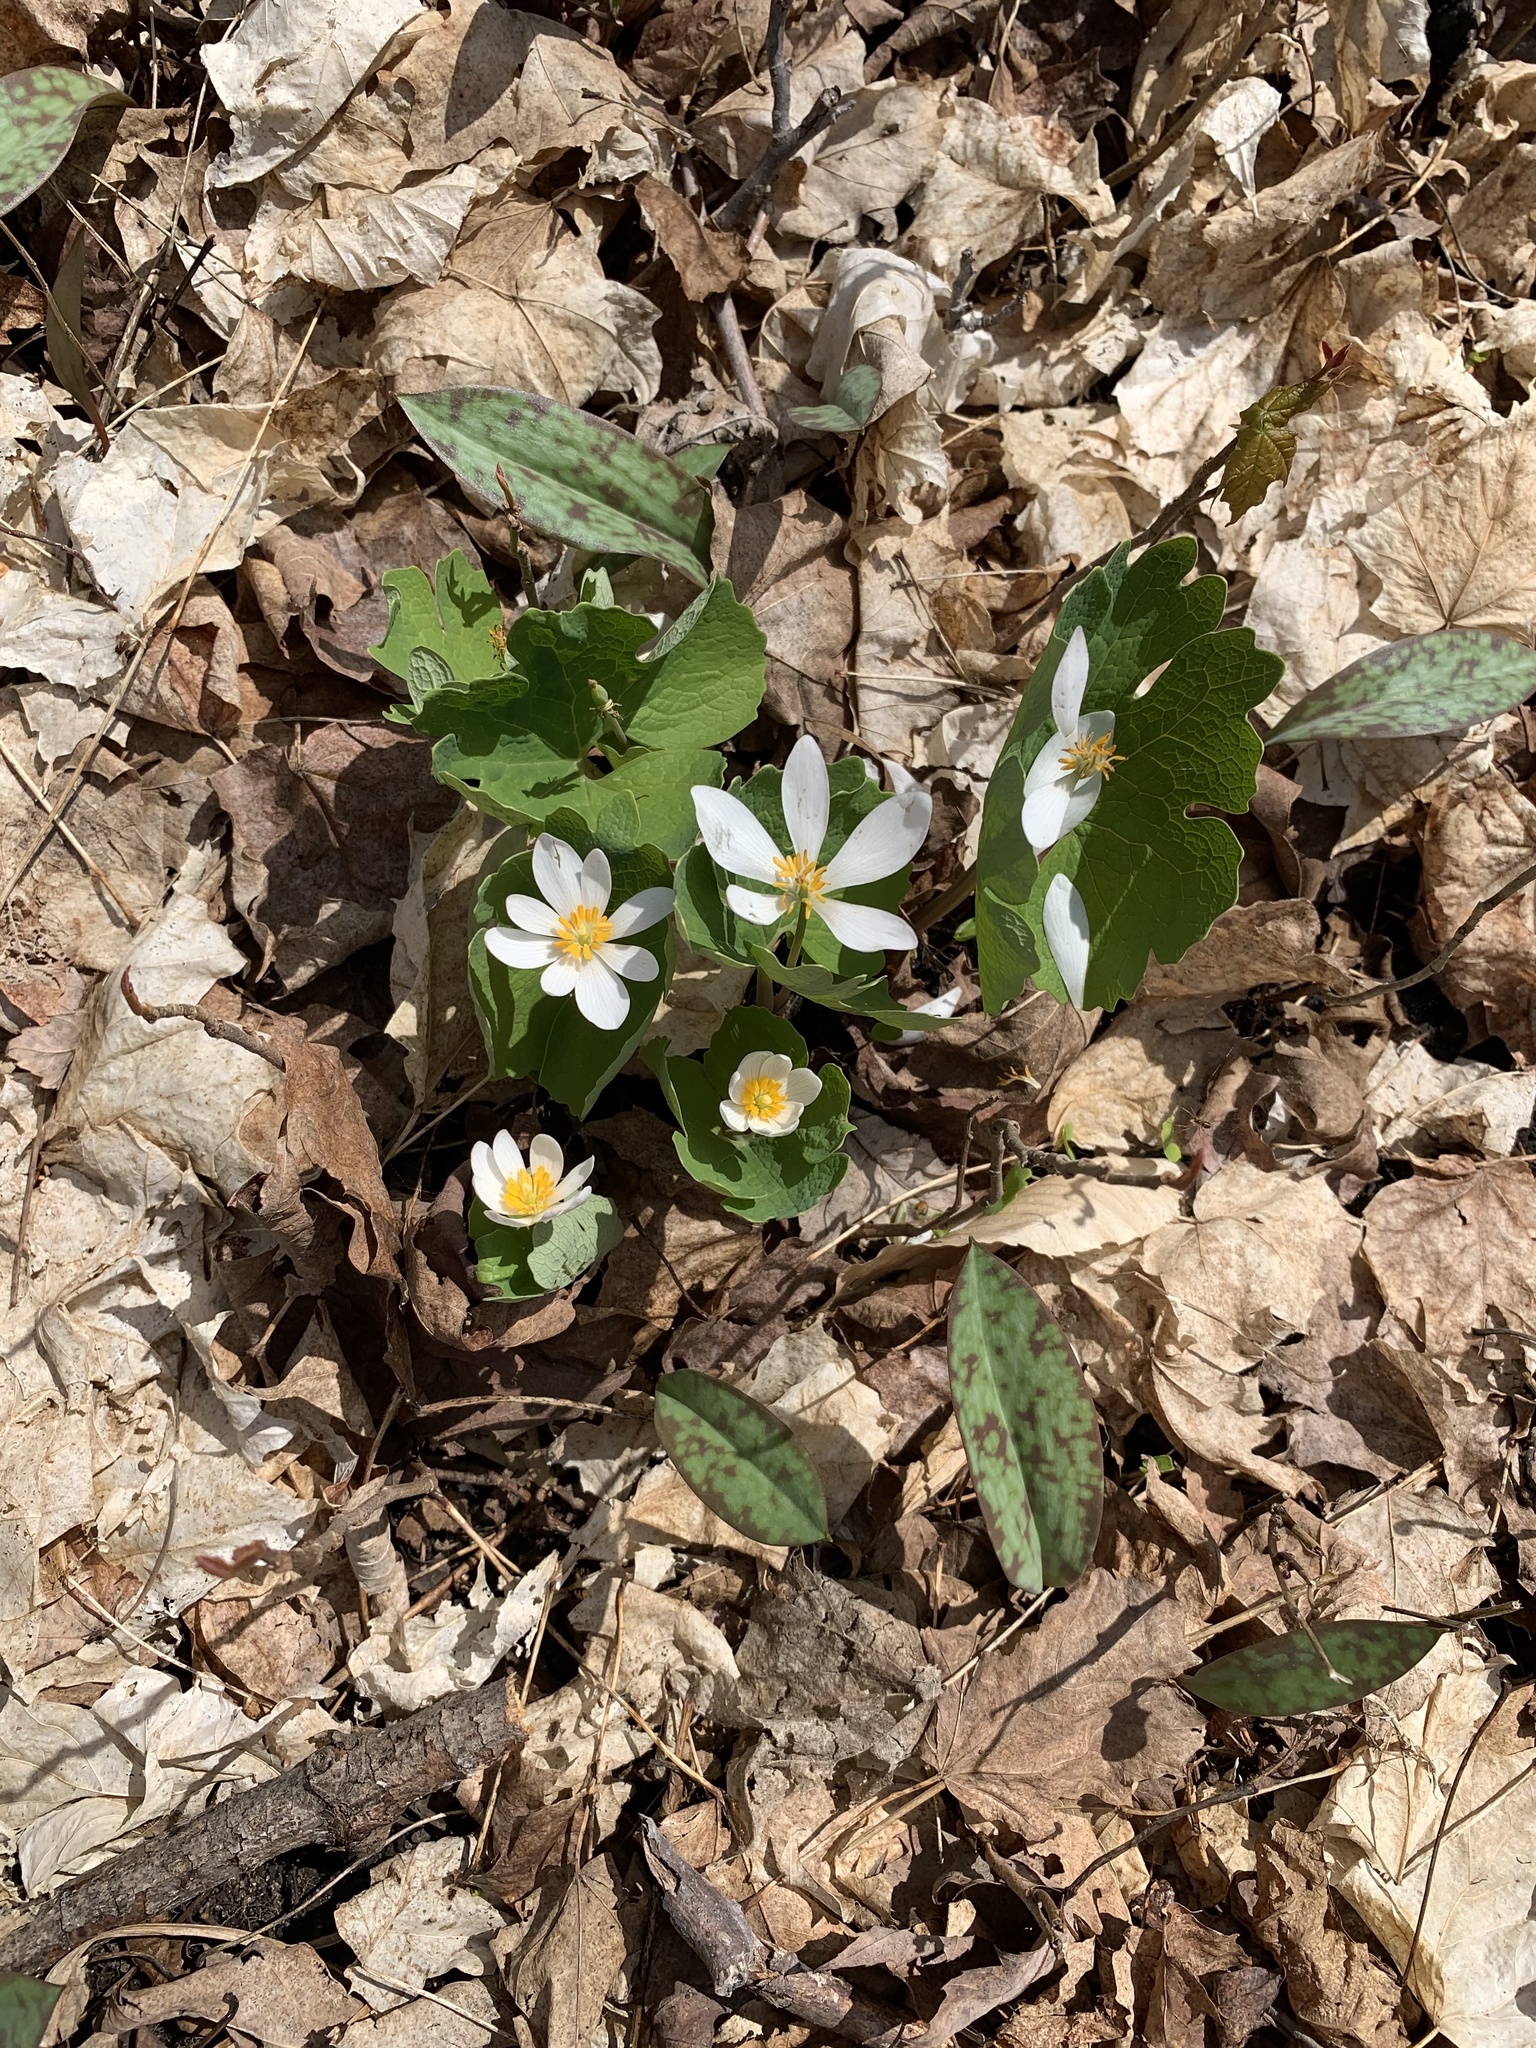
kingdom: Plantae
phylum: Tracheophyta
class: Magnoliopsida
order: Ranunculales
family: Papaveraceae
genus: Sanguinaria
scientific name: Sanguinaria canadensis
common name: Bloodroot
